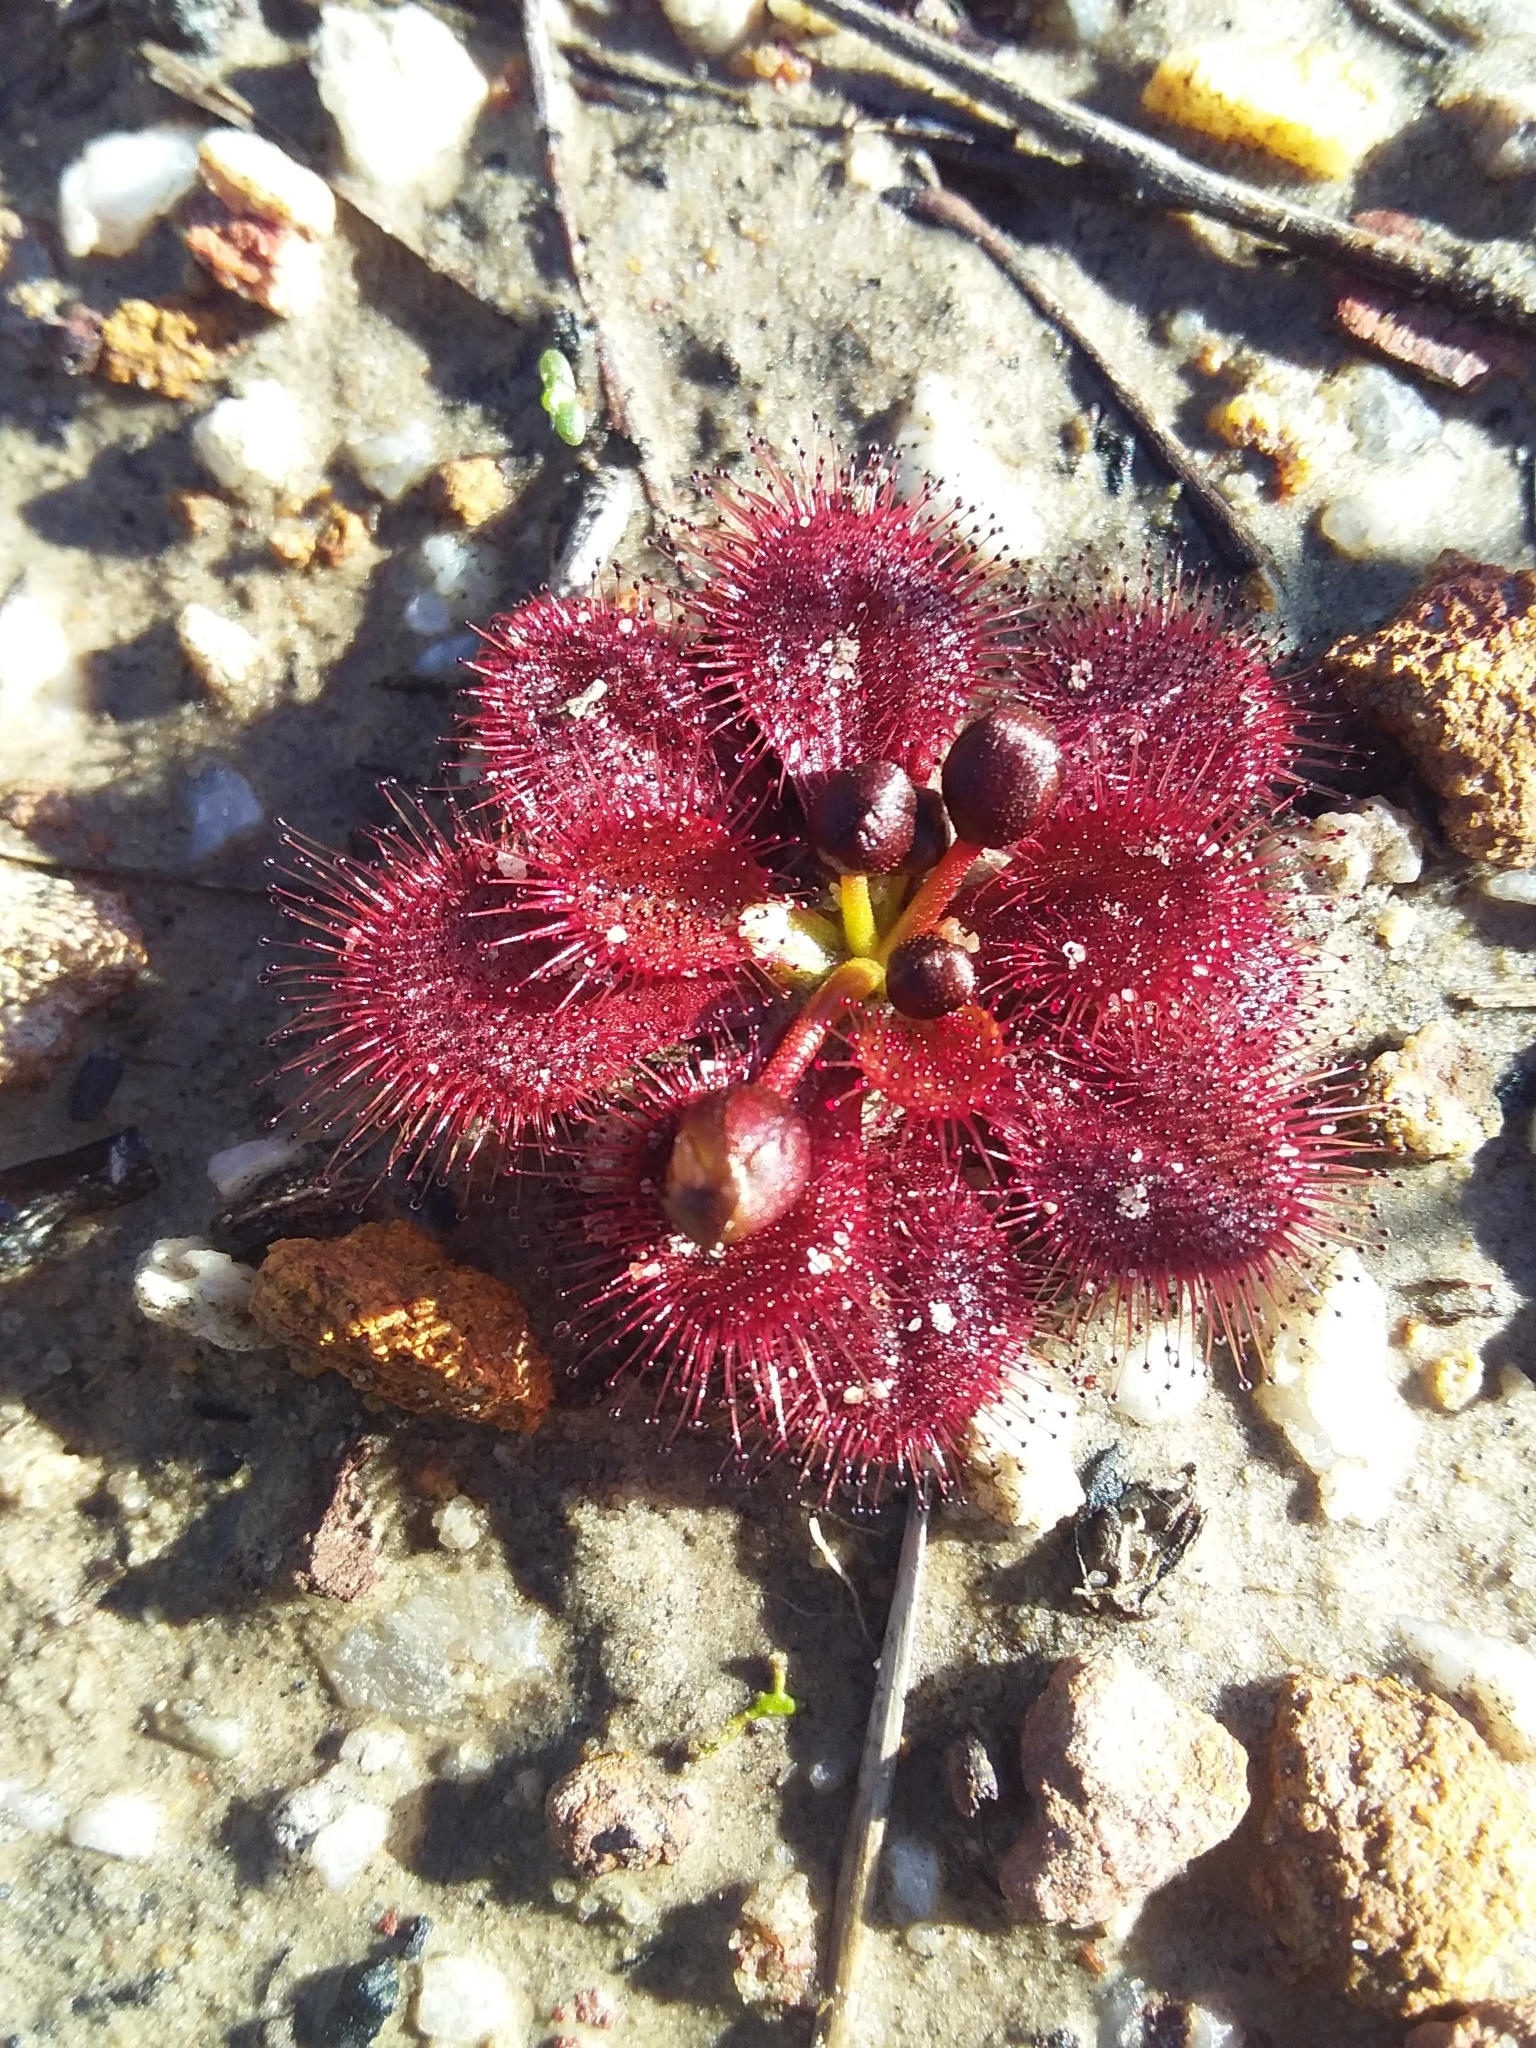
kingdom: Plantae
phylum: Tracheophyta
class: Magnoliopsida
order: Caryophyllales
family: Droseraceae
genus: Drosera
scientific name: Drosera whittakeri
